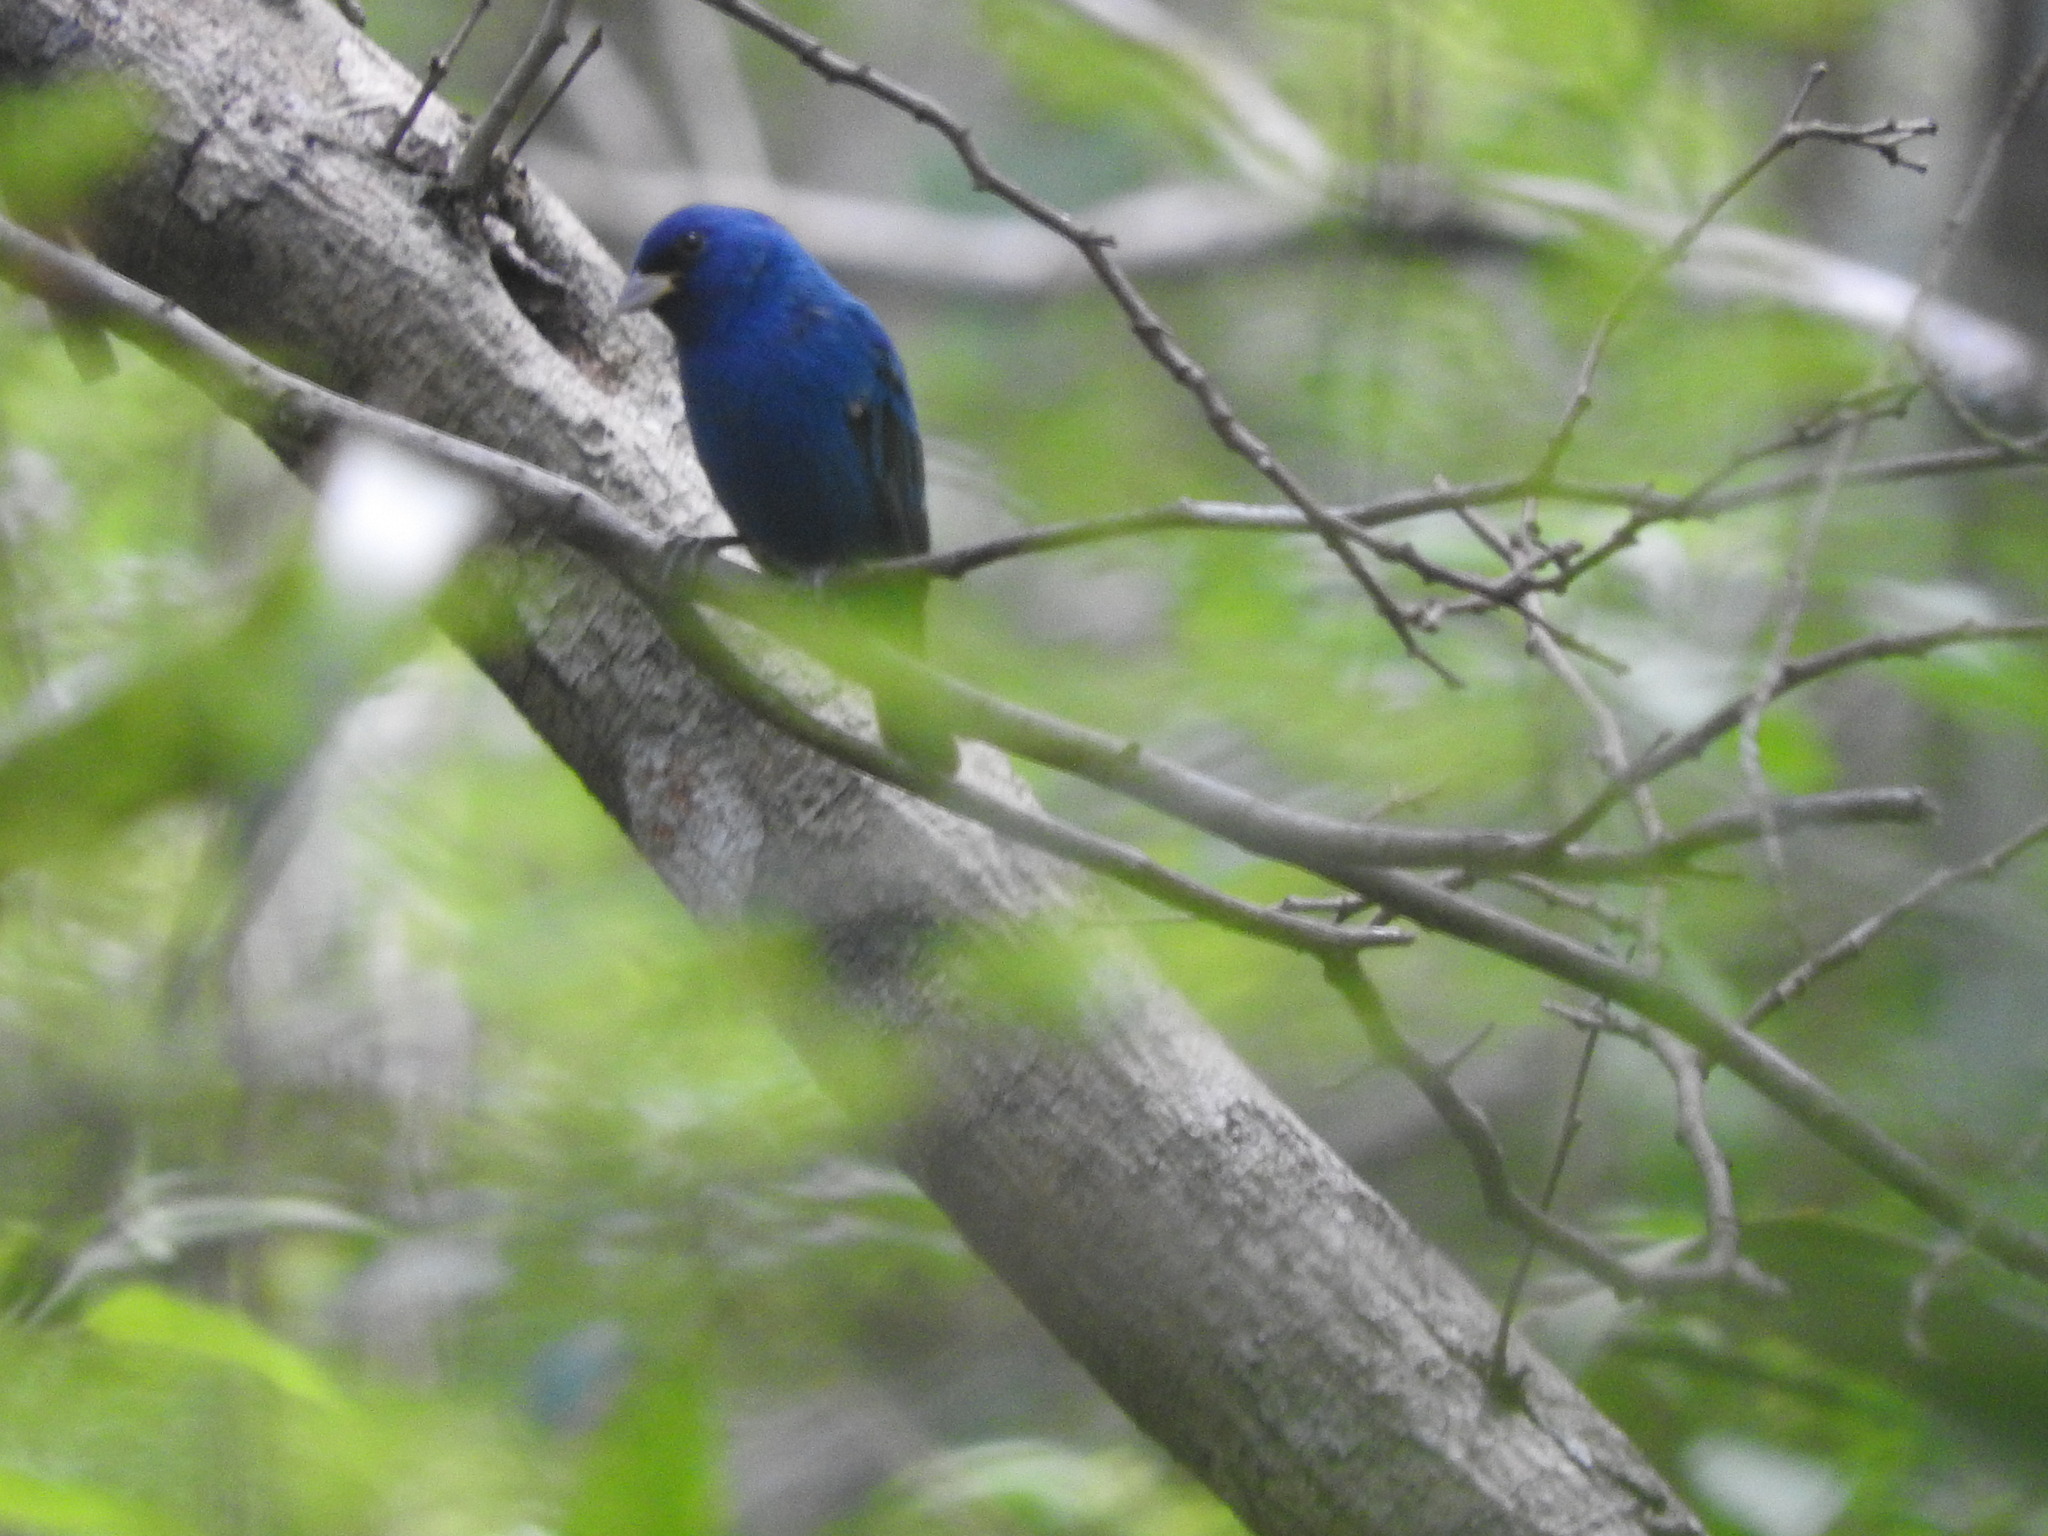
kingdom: Animalia
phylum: Chordata
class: Aves
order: Passeriformes
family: Cardinalidae
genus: Passerina
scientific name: Passerina cyanea
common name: Indigo bunting
